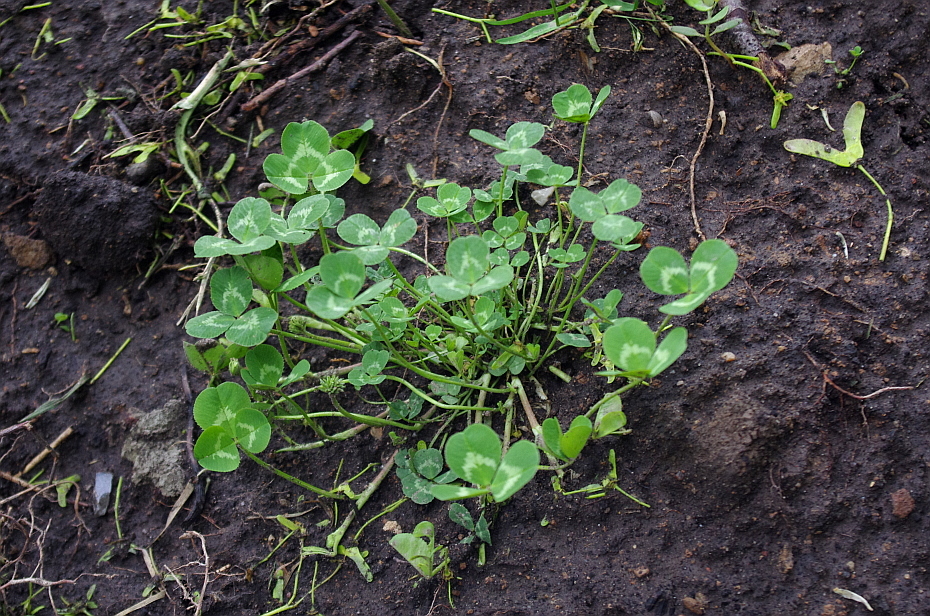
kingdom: Plantae
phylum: Tracheophyta
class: Magnoliopsida
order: Fabales
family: Fabaceae
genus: Trifolium
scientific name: Trifolium repens
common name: White clover
